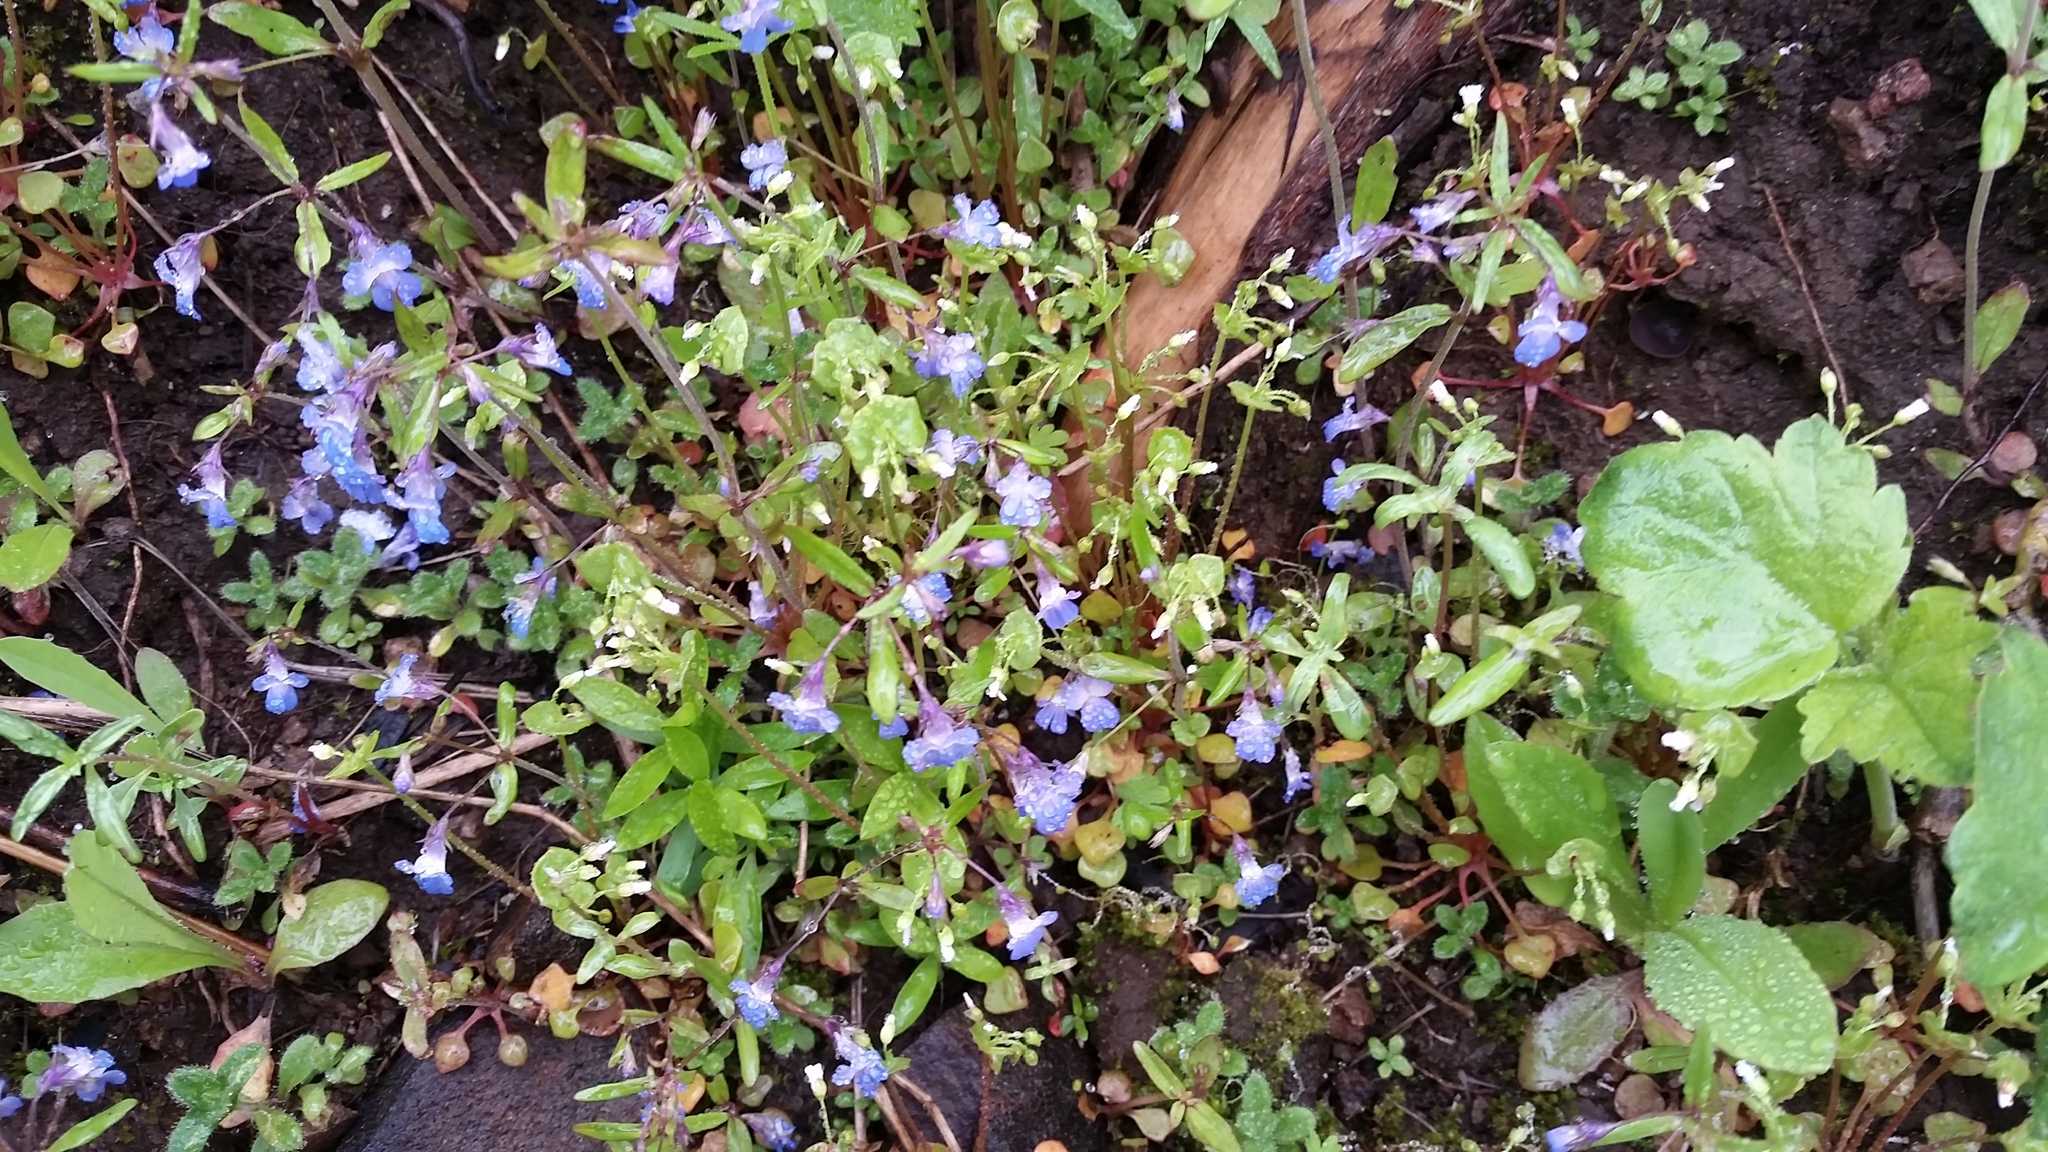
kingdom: Plantae
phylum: Tracheophyta
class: Magnoliopsida
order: Lamiales
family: Plantaginaceae
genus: Collinsia
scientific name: Collinsia parviflora
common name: Blue-lips
